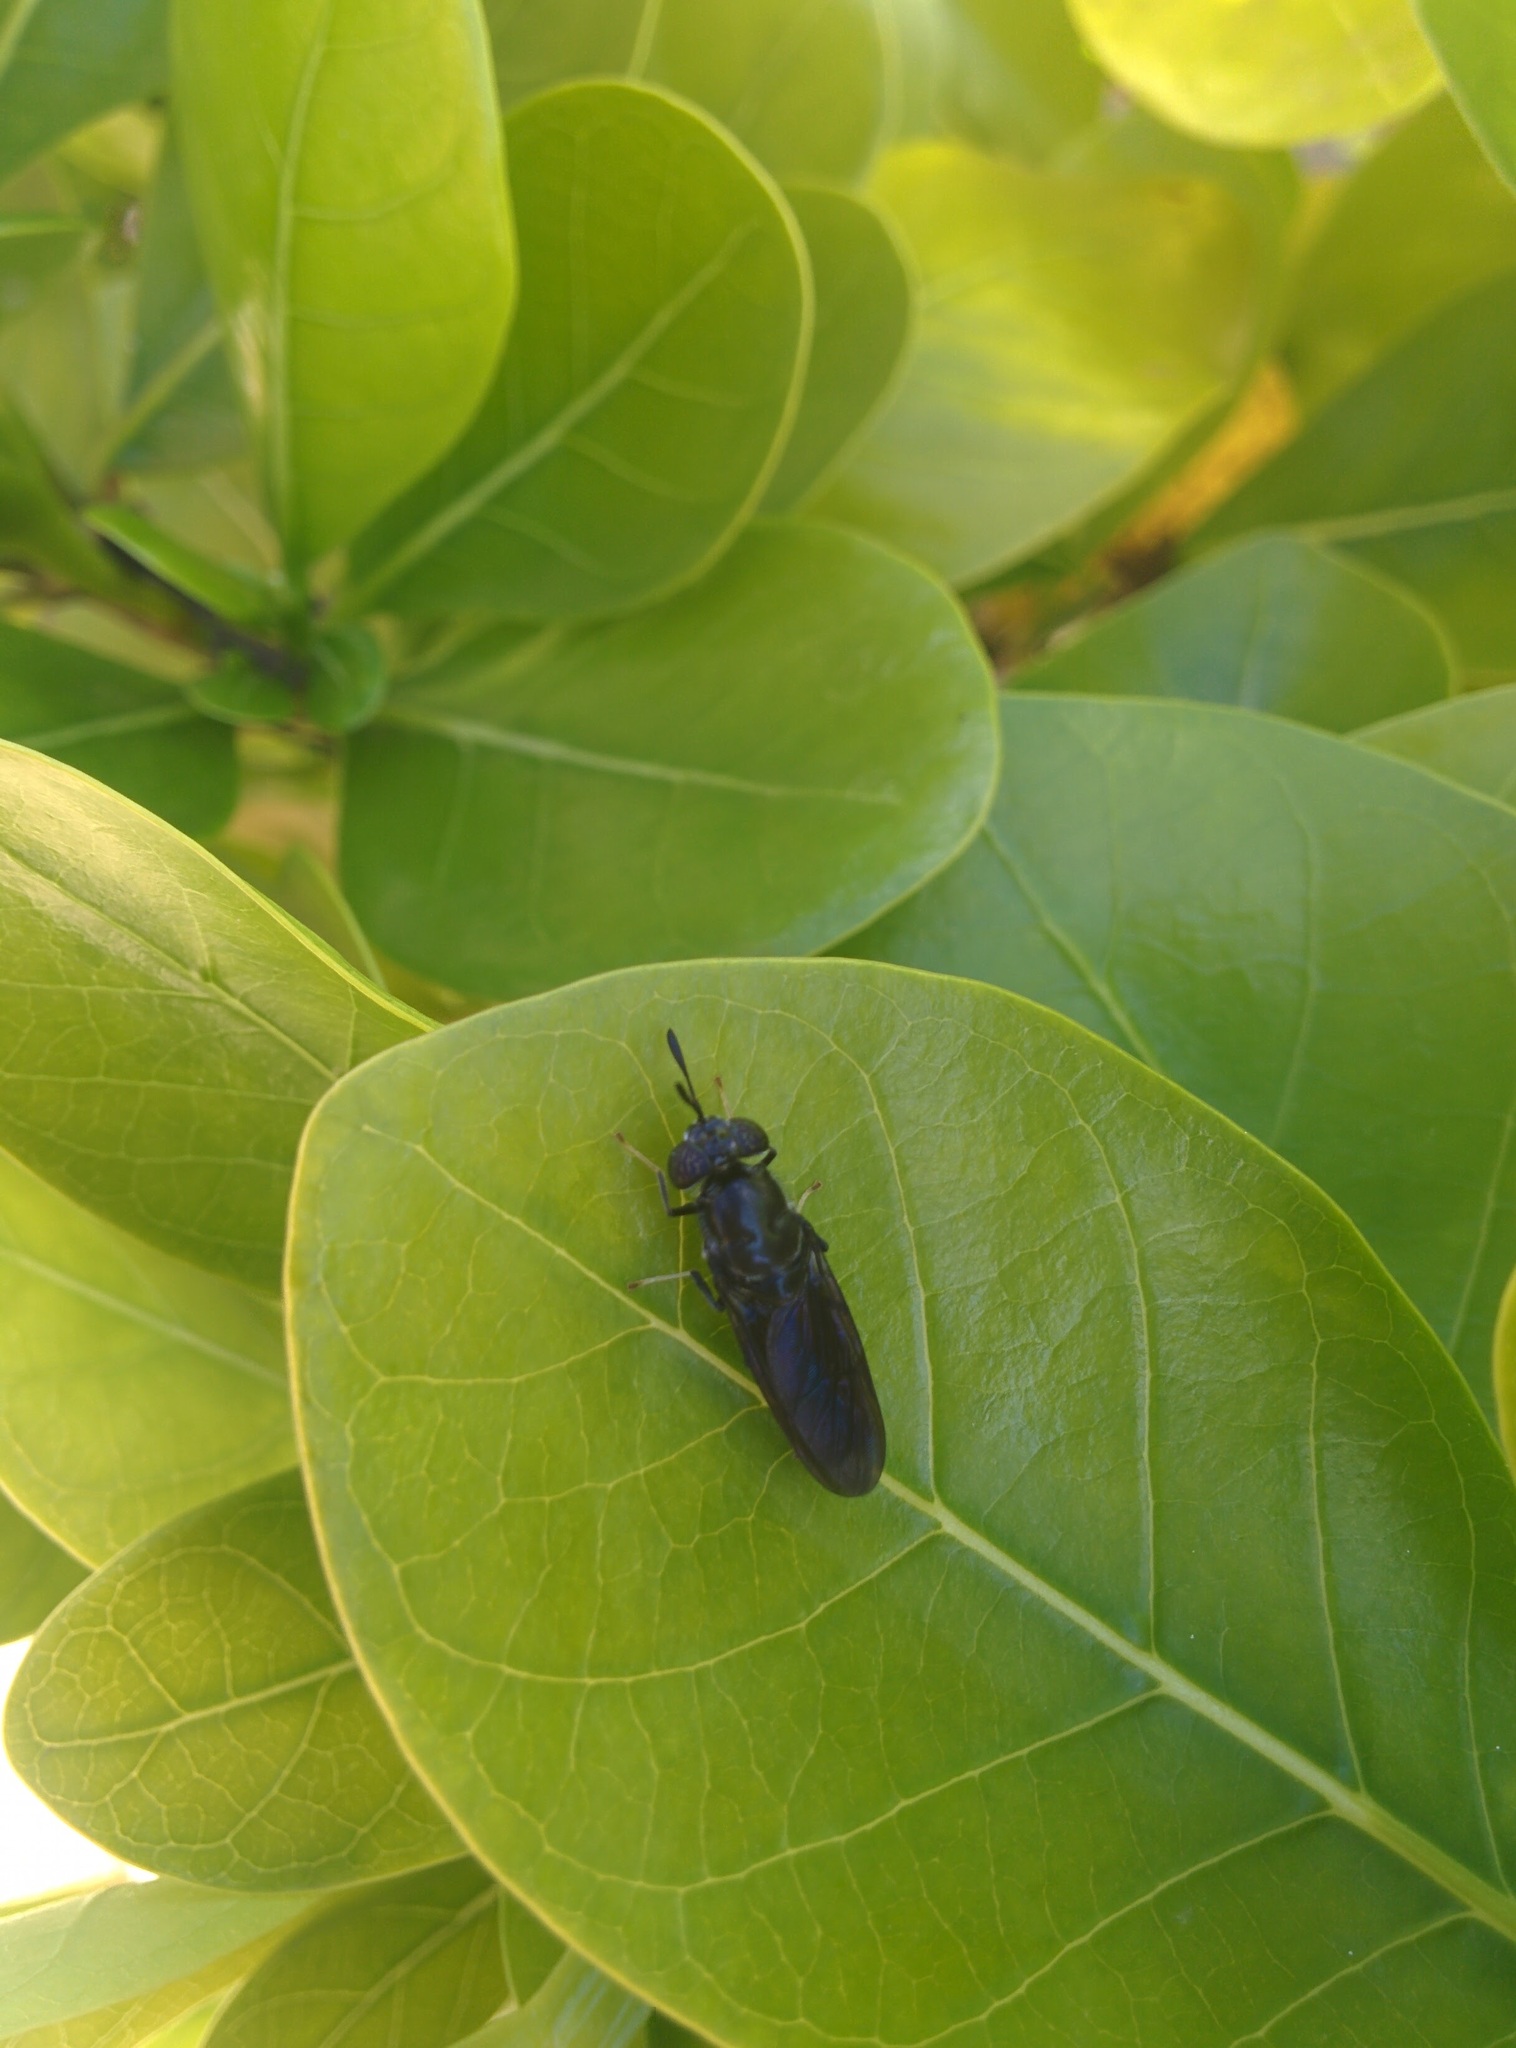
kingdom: Animalia
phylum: Arthropoda
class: Insecta
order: Diptera
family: Stratiomyidae
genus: Hermetia
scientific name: Hermetia illucens
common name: Black soldier fly
